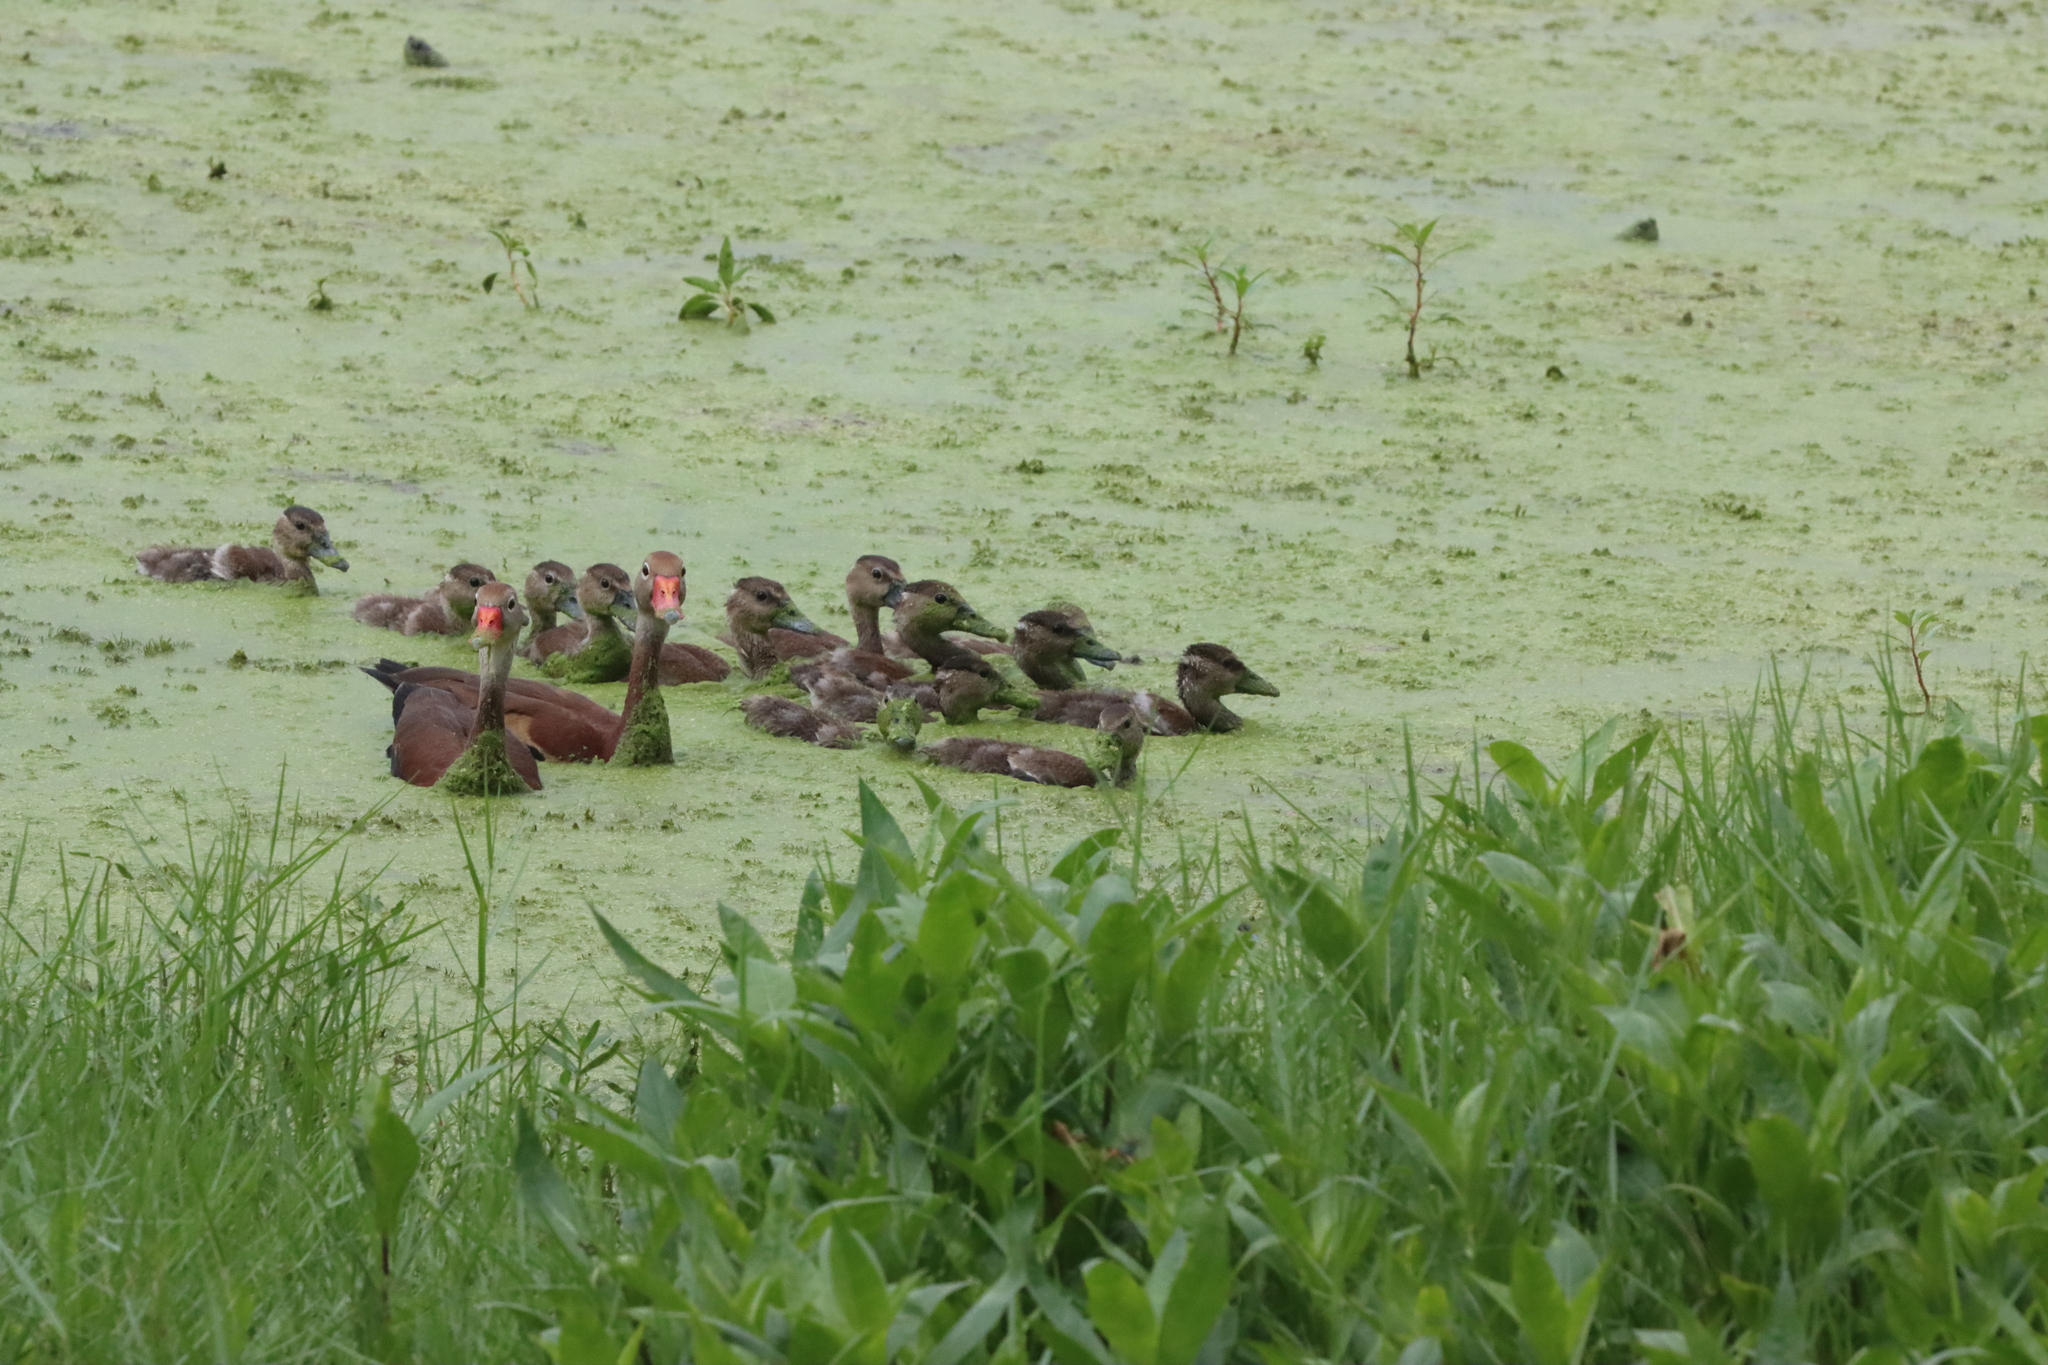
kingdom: Animalia
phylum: Chordata
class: Aves
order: Anseriformes
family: Anatidae
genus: Dendrocygna
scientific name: Dendrocygna autumnalis
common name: Black-bellied whistling duck
